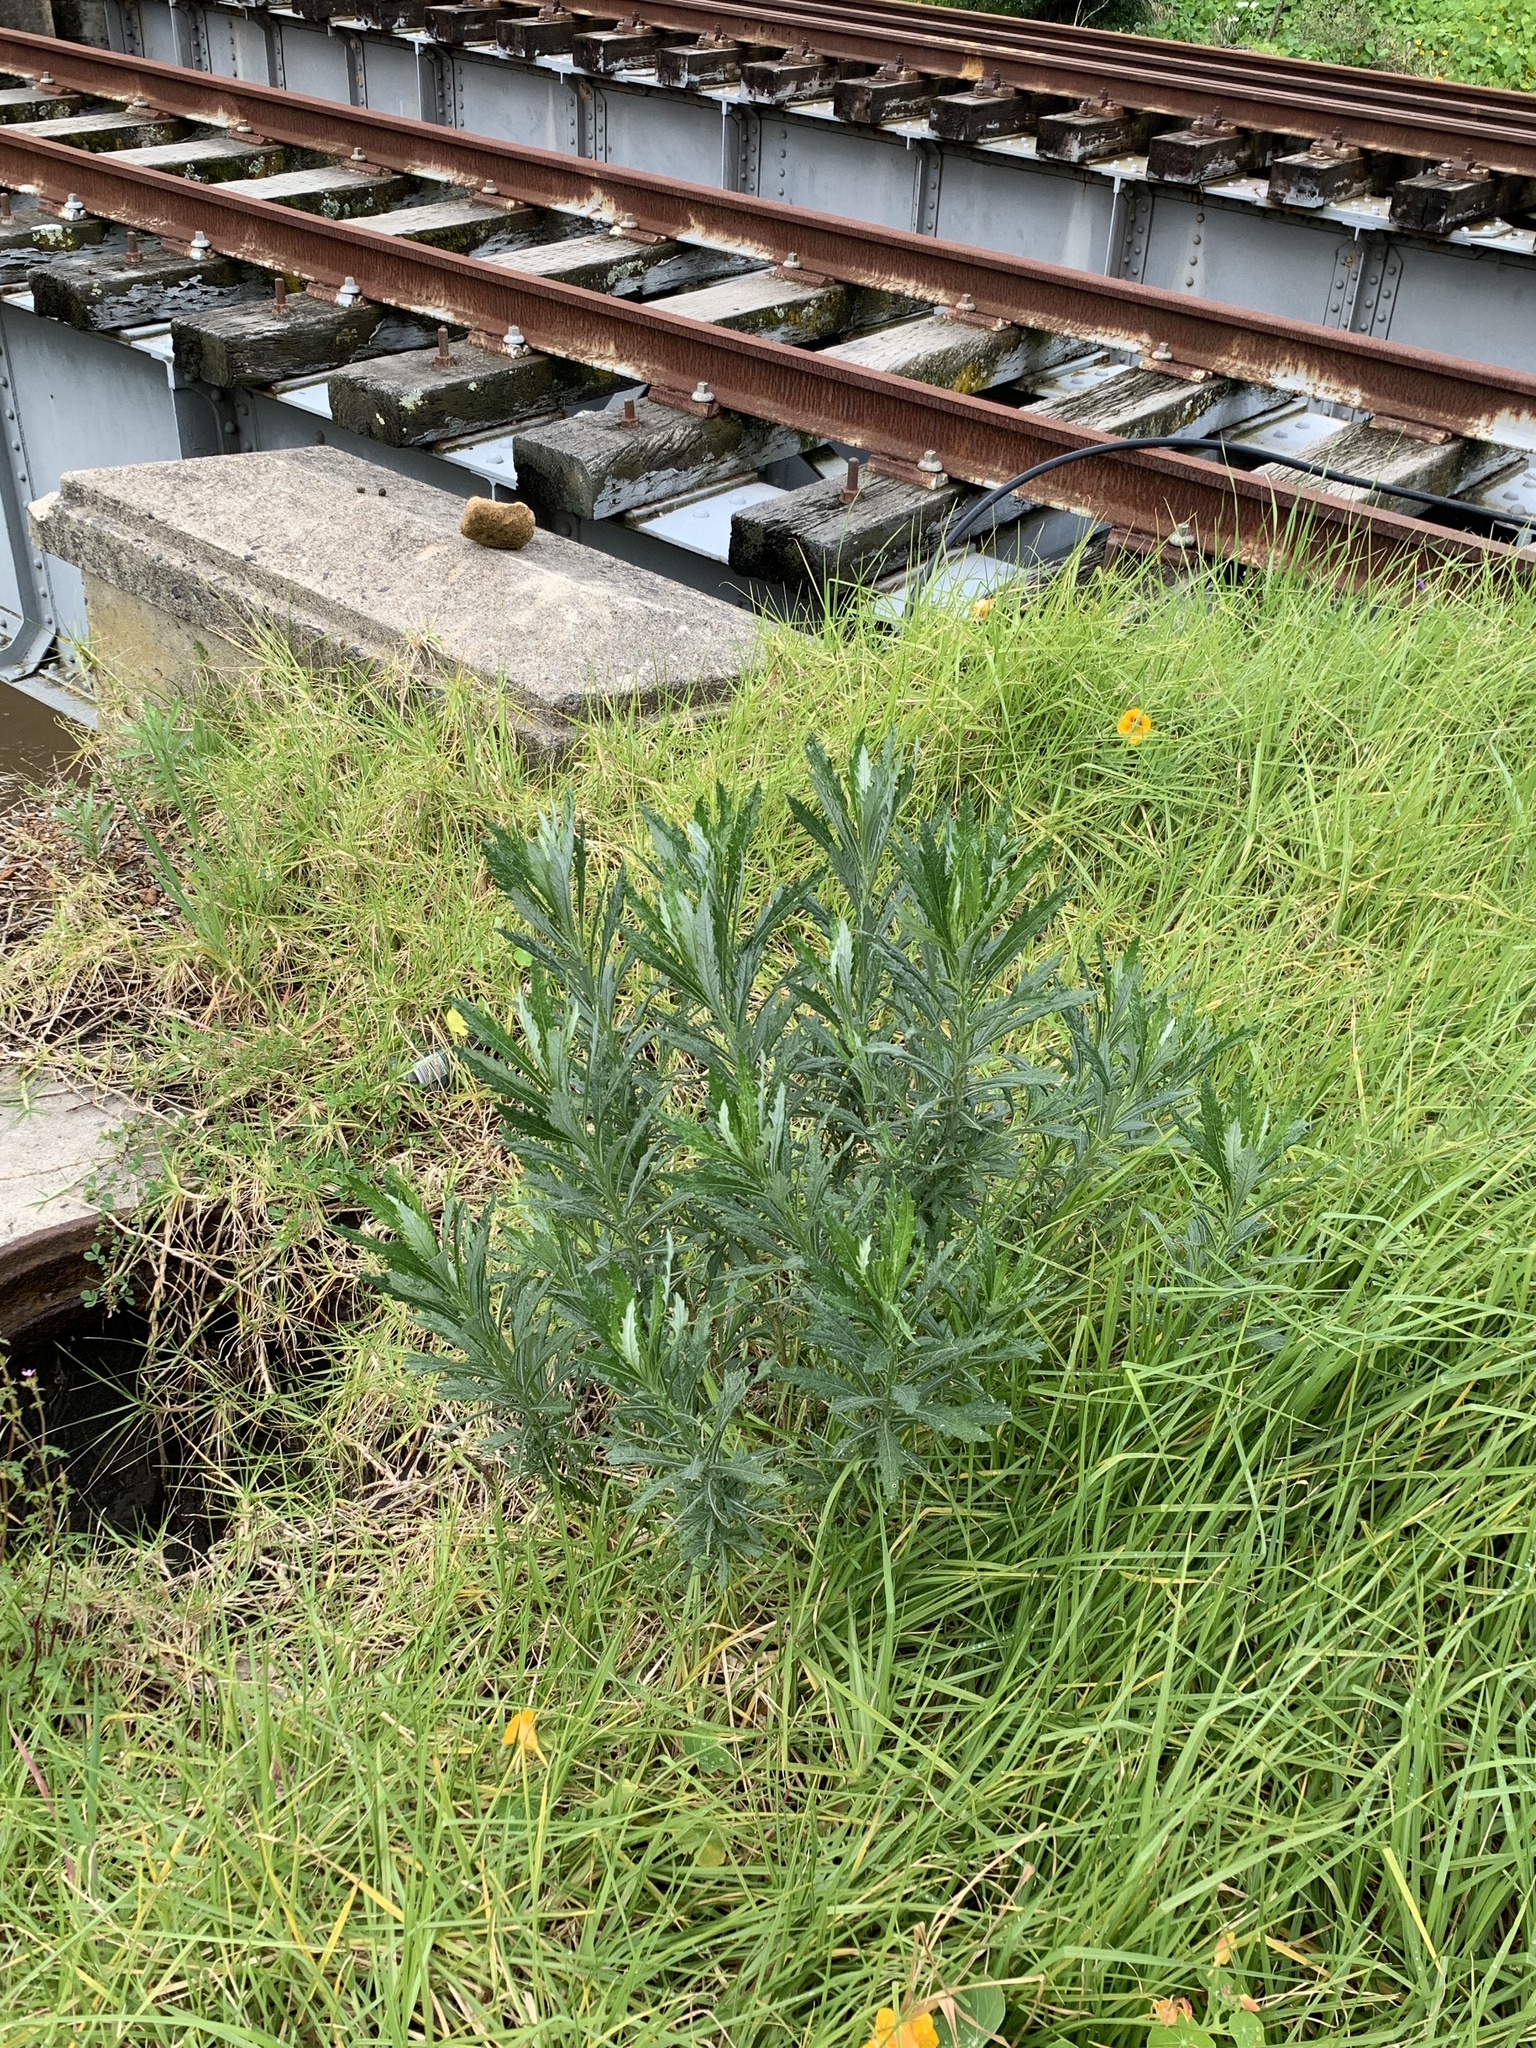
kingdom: Plantae
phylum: Tracheophyta
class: Magnoliopsida
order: Asterales
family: Asteraceae
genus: Senecio
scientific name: Senecio pterophorus
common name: Shoddy ragwort
